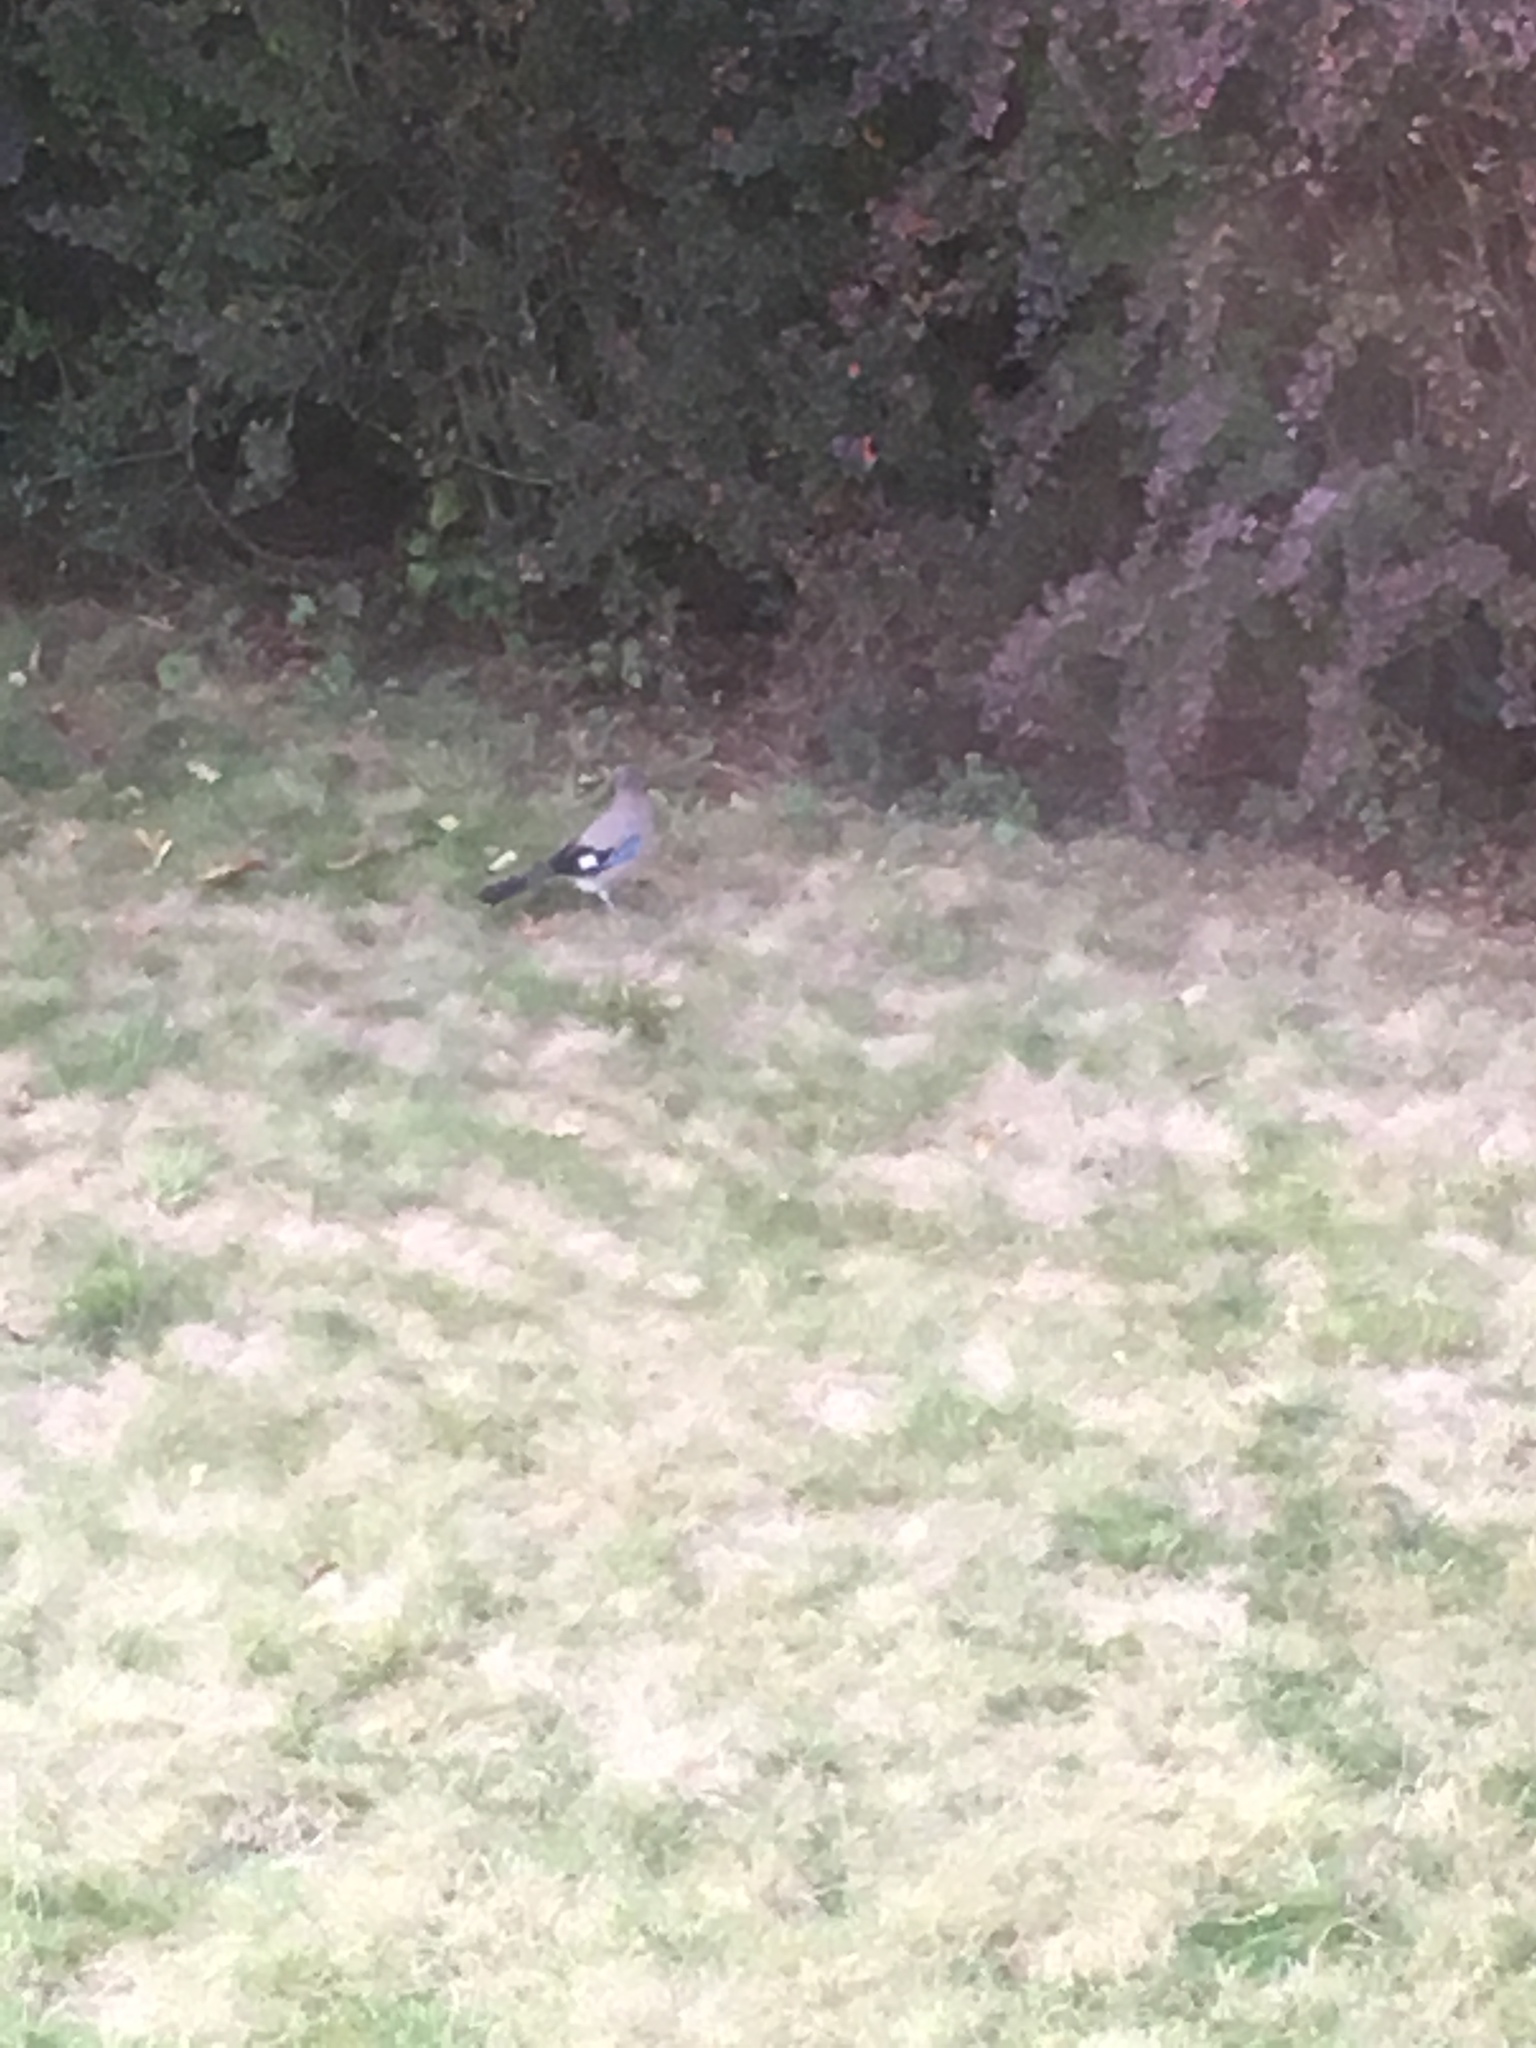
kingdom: Animalia
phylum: Chordata
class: Aves
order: Passeriformes
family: Corvidae
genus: Garrulus
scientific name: Garrulus glandarius
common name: Eurasian jay
